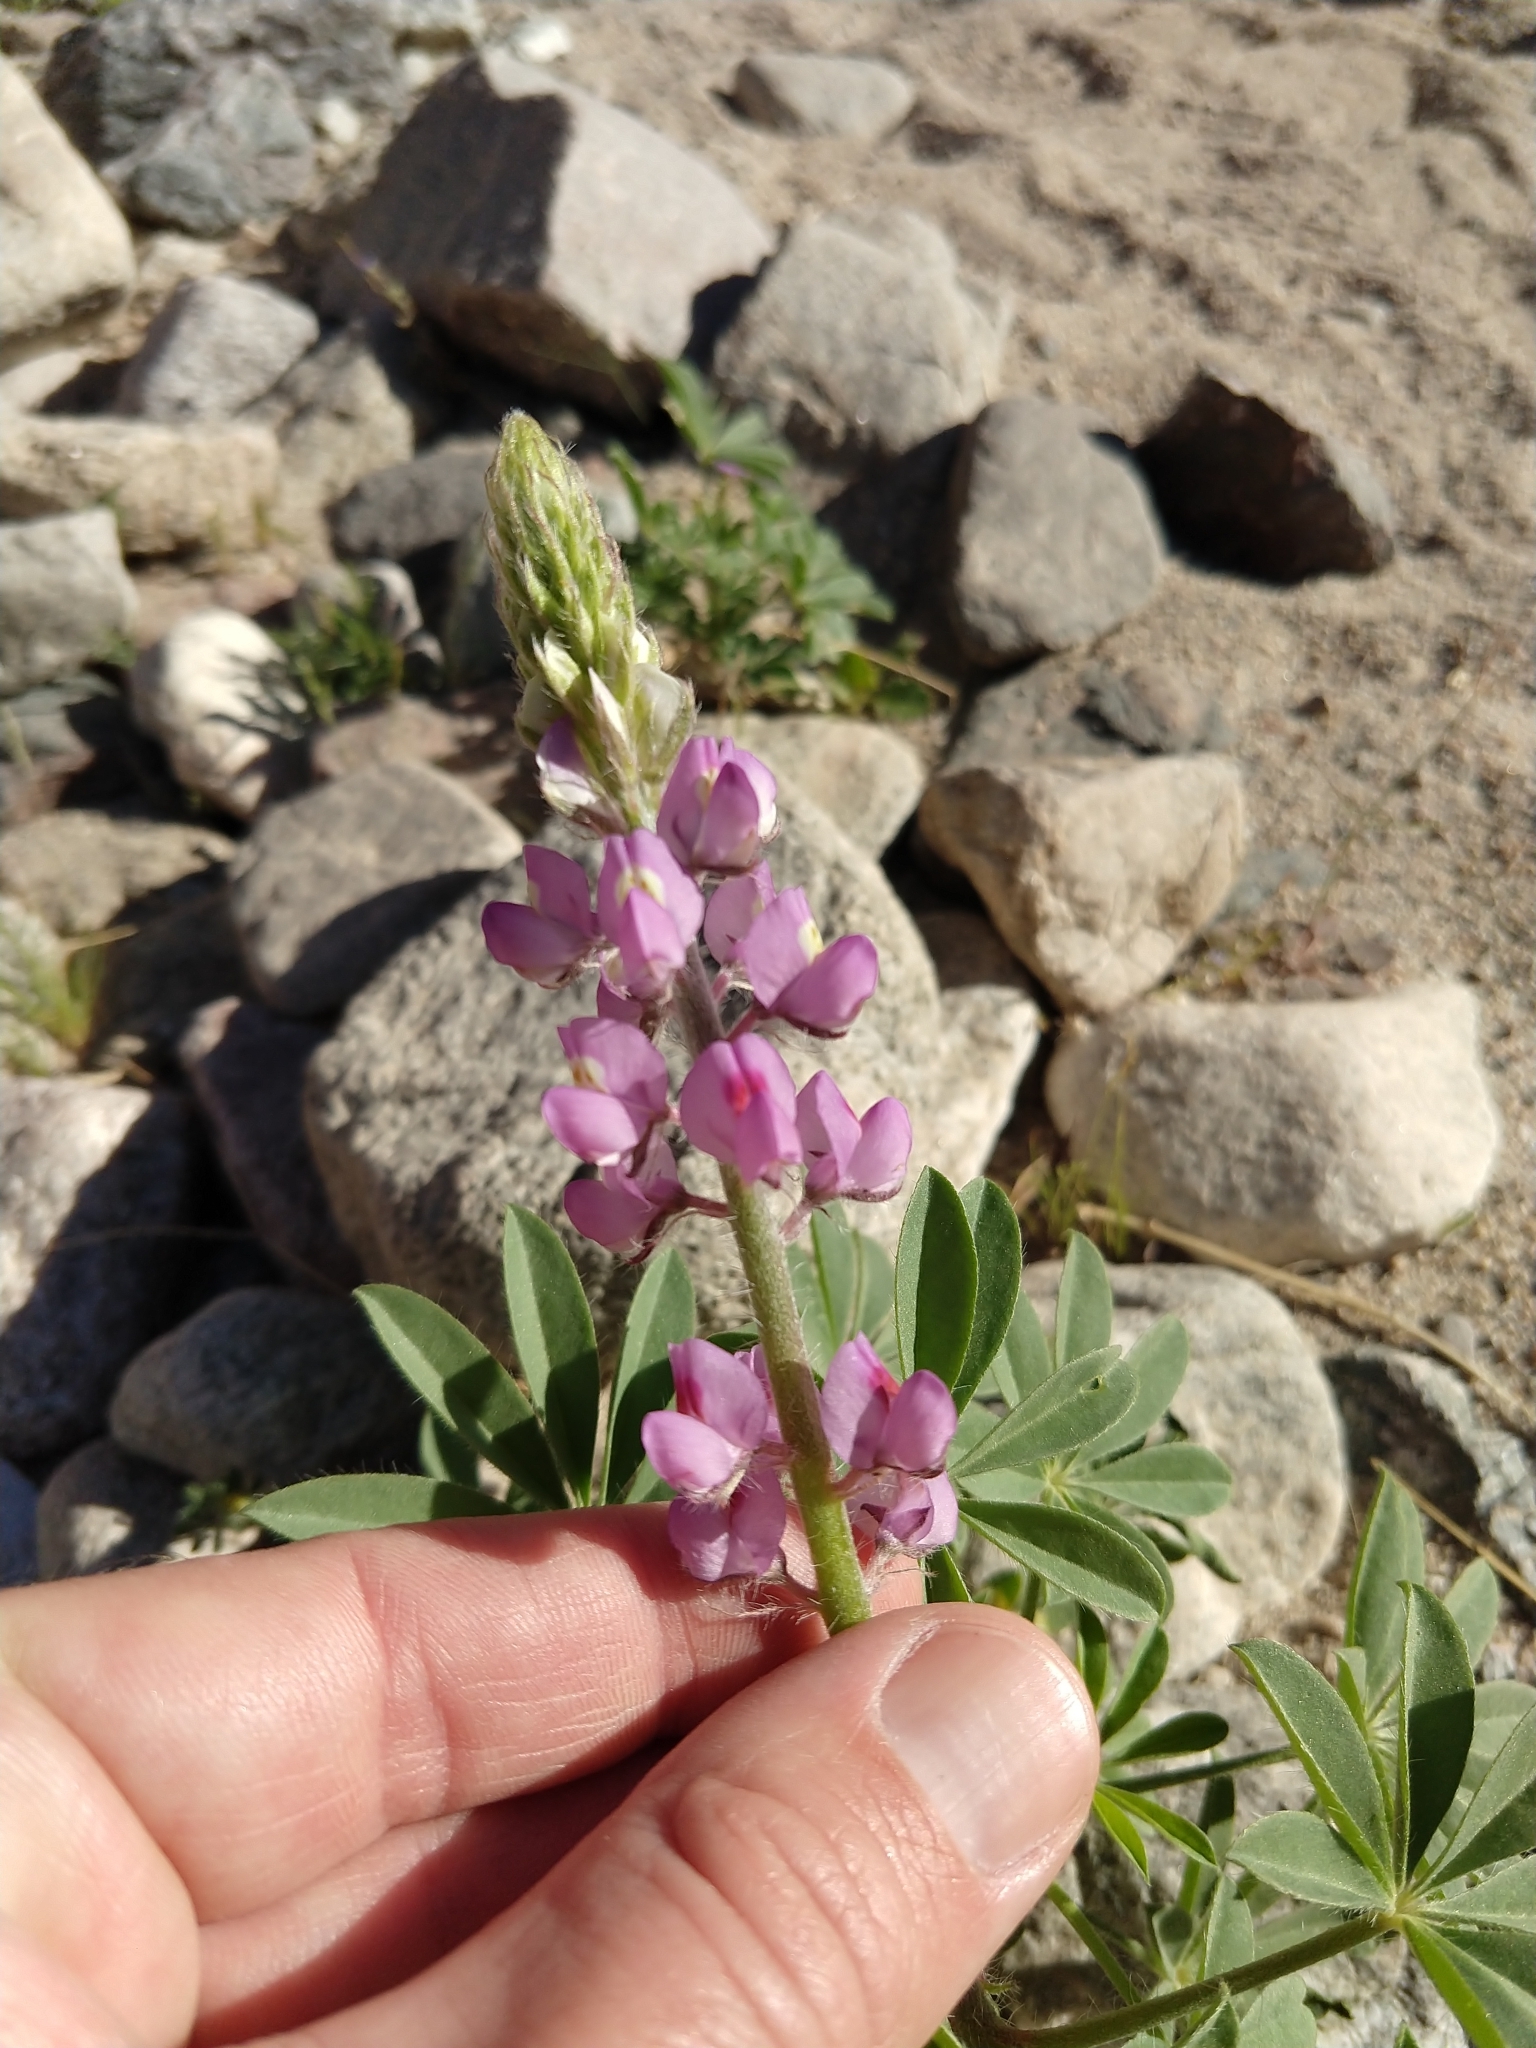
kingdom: Plantae
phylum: Tracheophyta
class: Magnoliopsida
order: Fabales
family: Fabaceae
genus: Lupinus
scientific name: Lupinus arizonicus
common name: Arizona lupine
